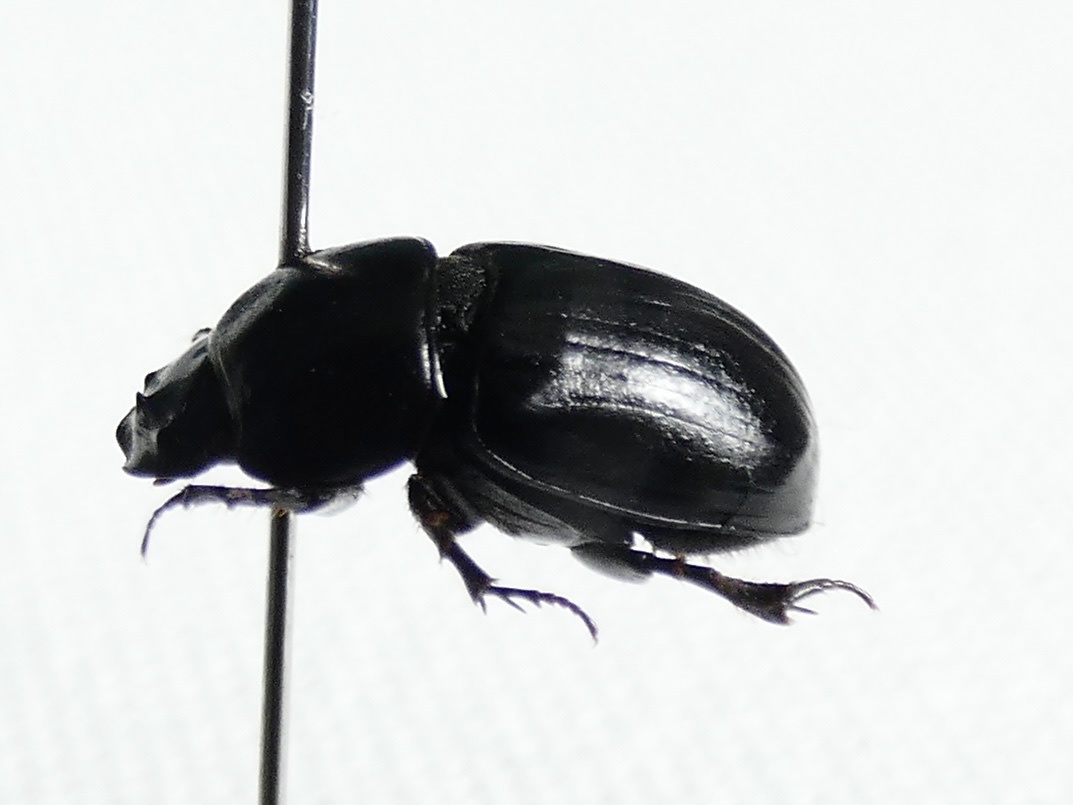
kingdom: Animalia
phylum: Arthropoda
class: Insecta
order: Coleoptera
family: Scarabaeidae
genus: Teuchestes
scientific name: Teuchestes fossor
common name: Digger small dung beetle
